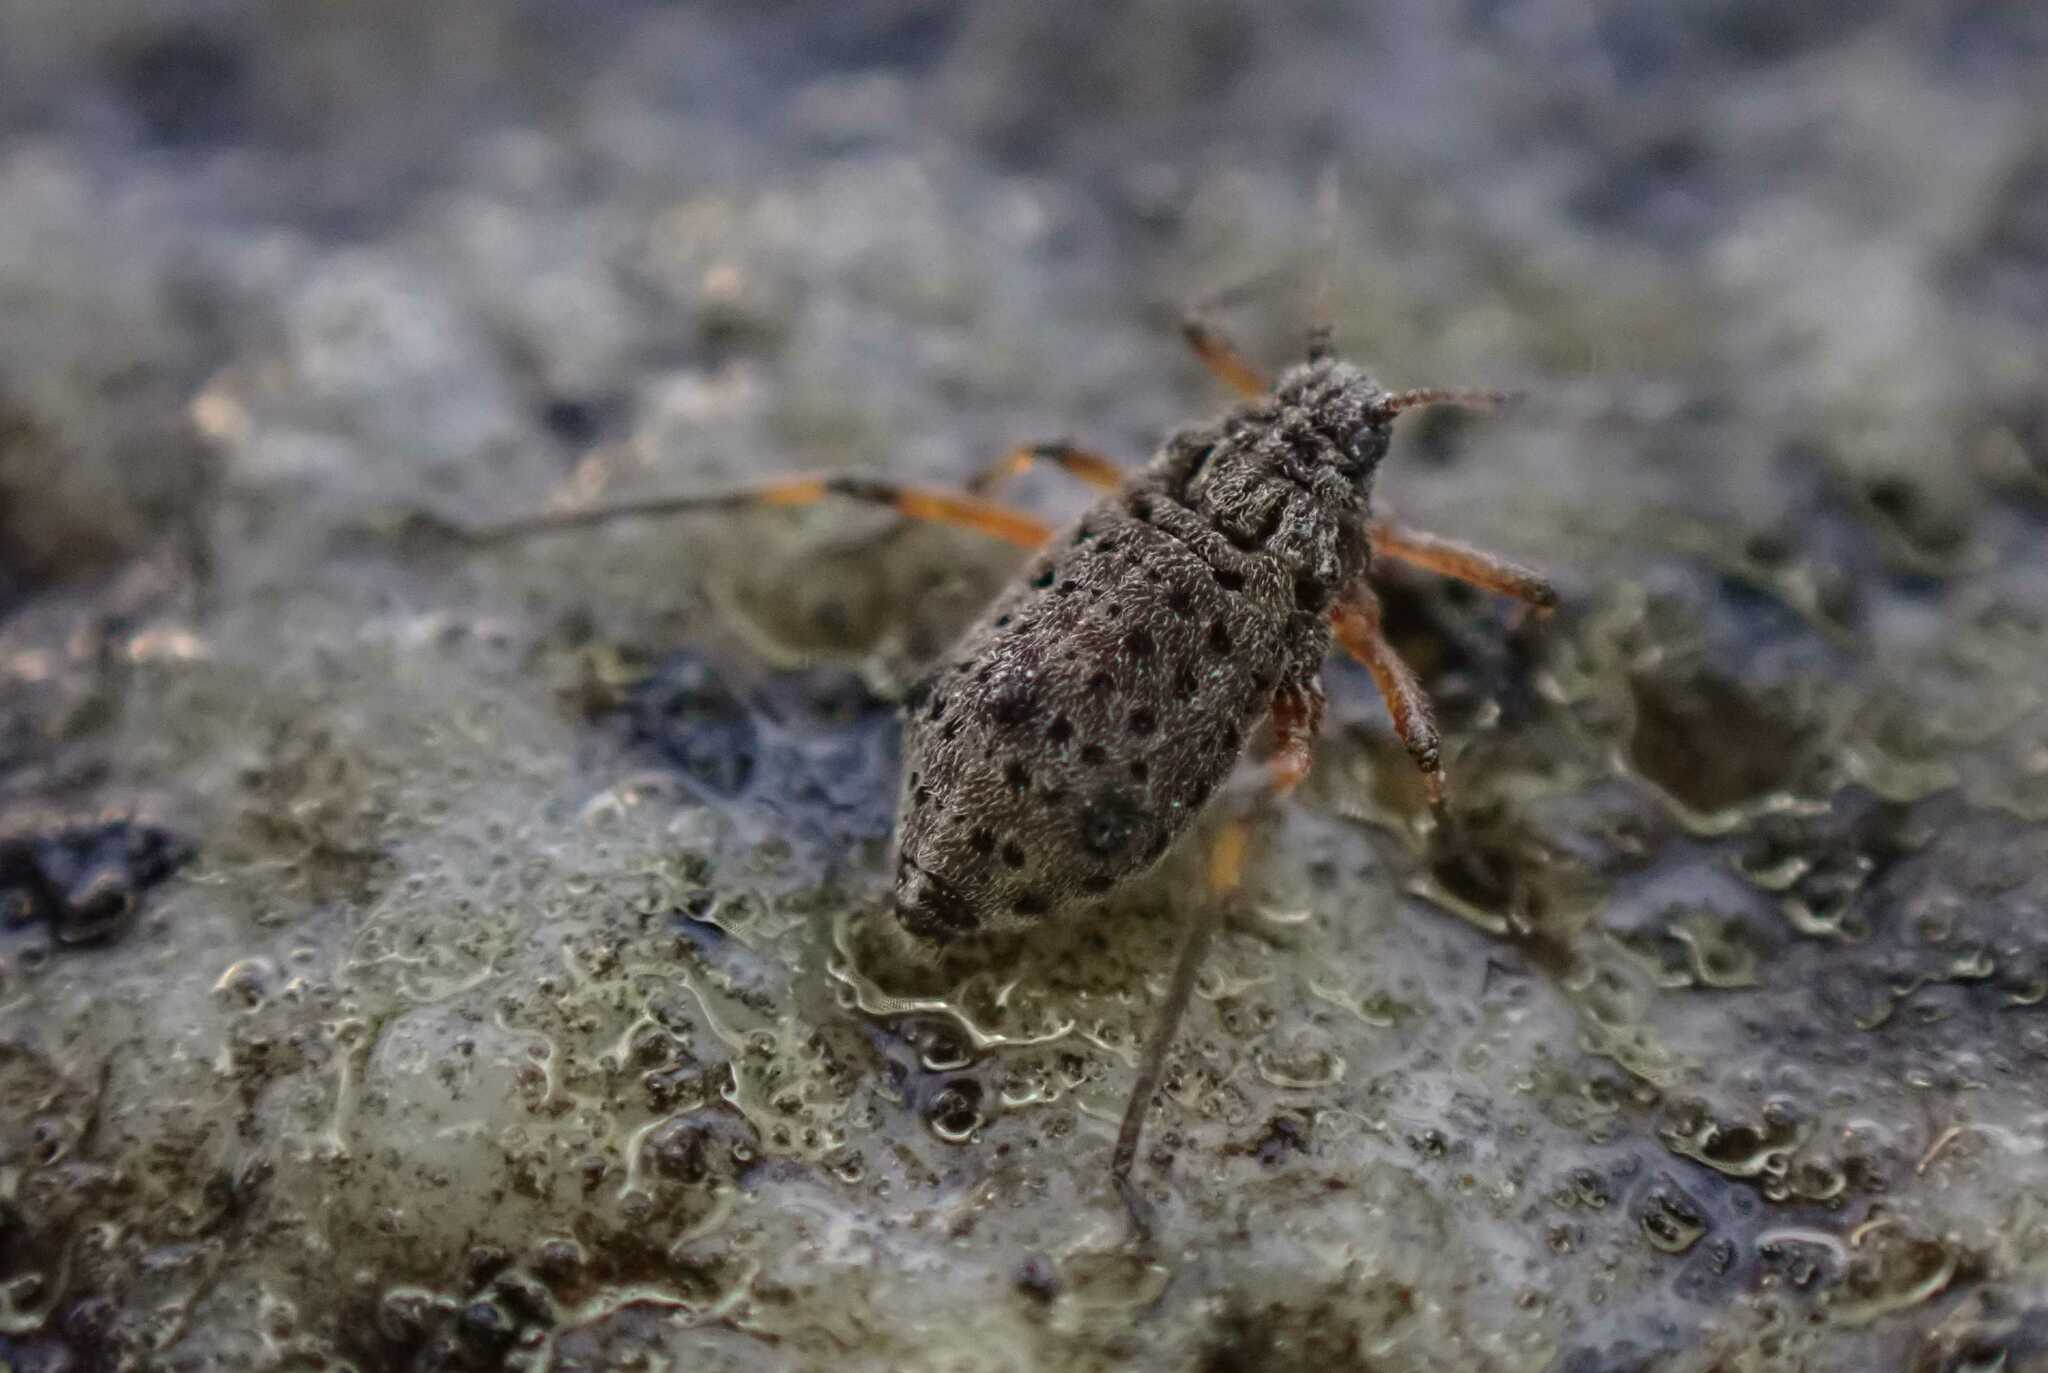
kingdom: Animalia
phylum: Arthropoda
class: Insecta
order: Hemiptera
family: Aphididae
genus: Tuberolachnus
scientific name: Tuberolachnus salignus
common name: Giant willow aphid
